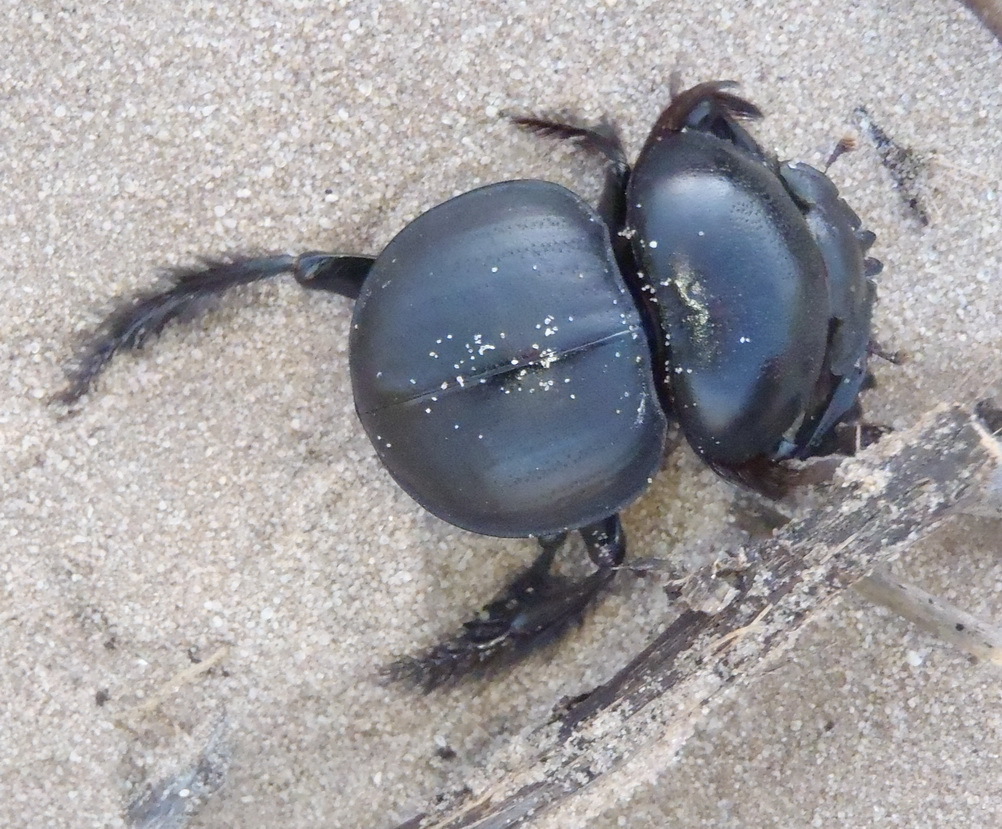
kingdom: Animalia
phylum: Arthropoda
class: Insecta
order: Coleoptera
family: Scarabaeidae
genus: Pachysoma
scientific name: Pachysoma hippocrates
